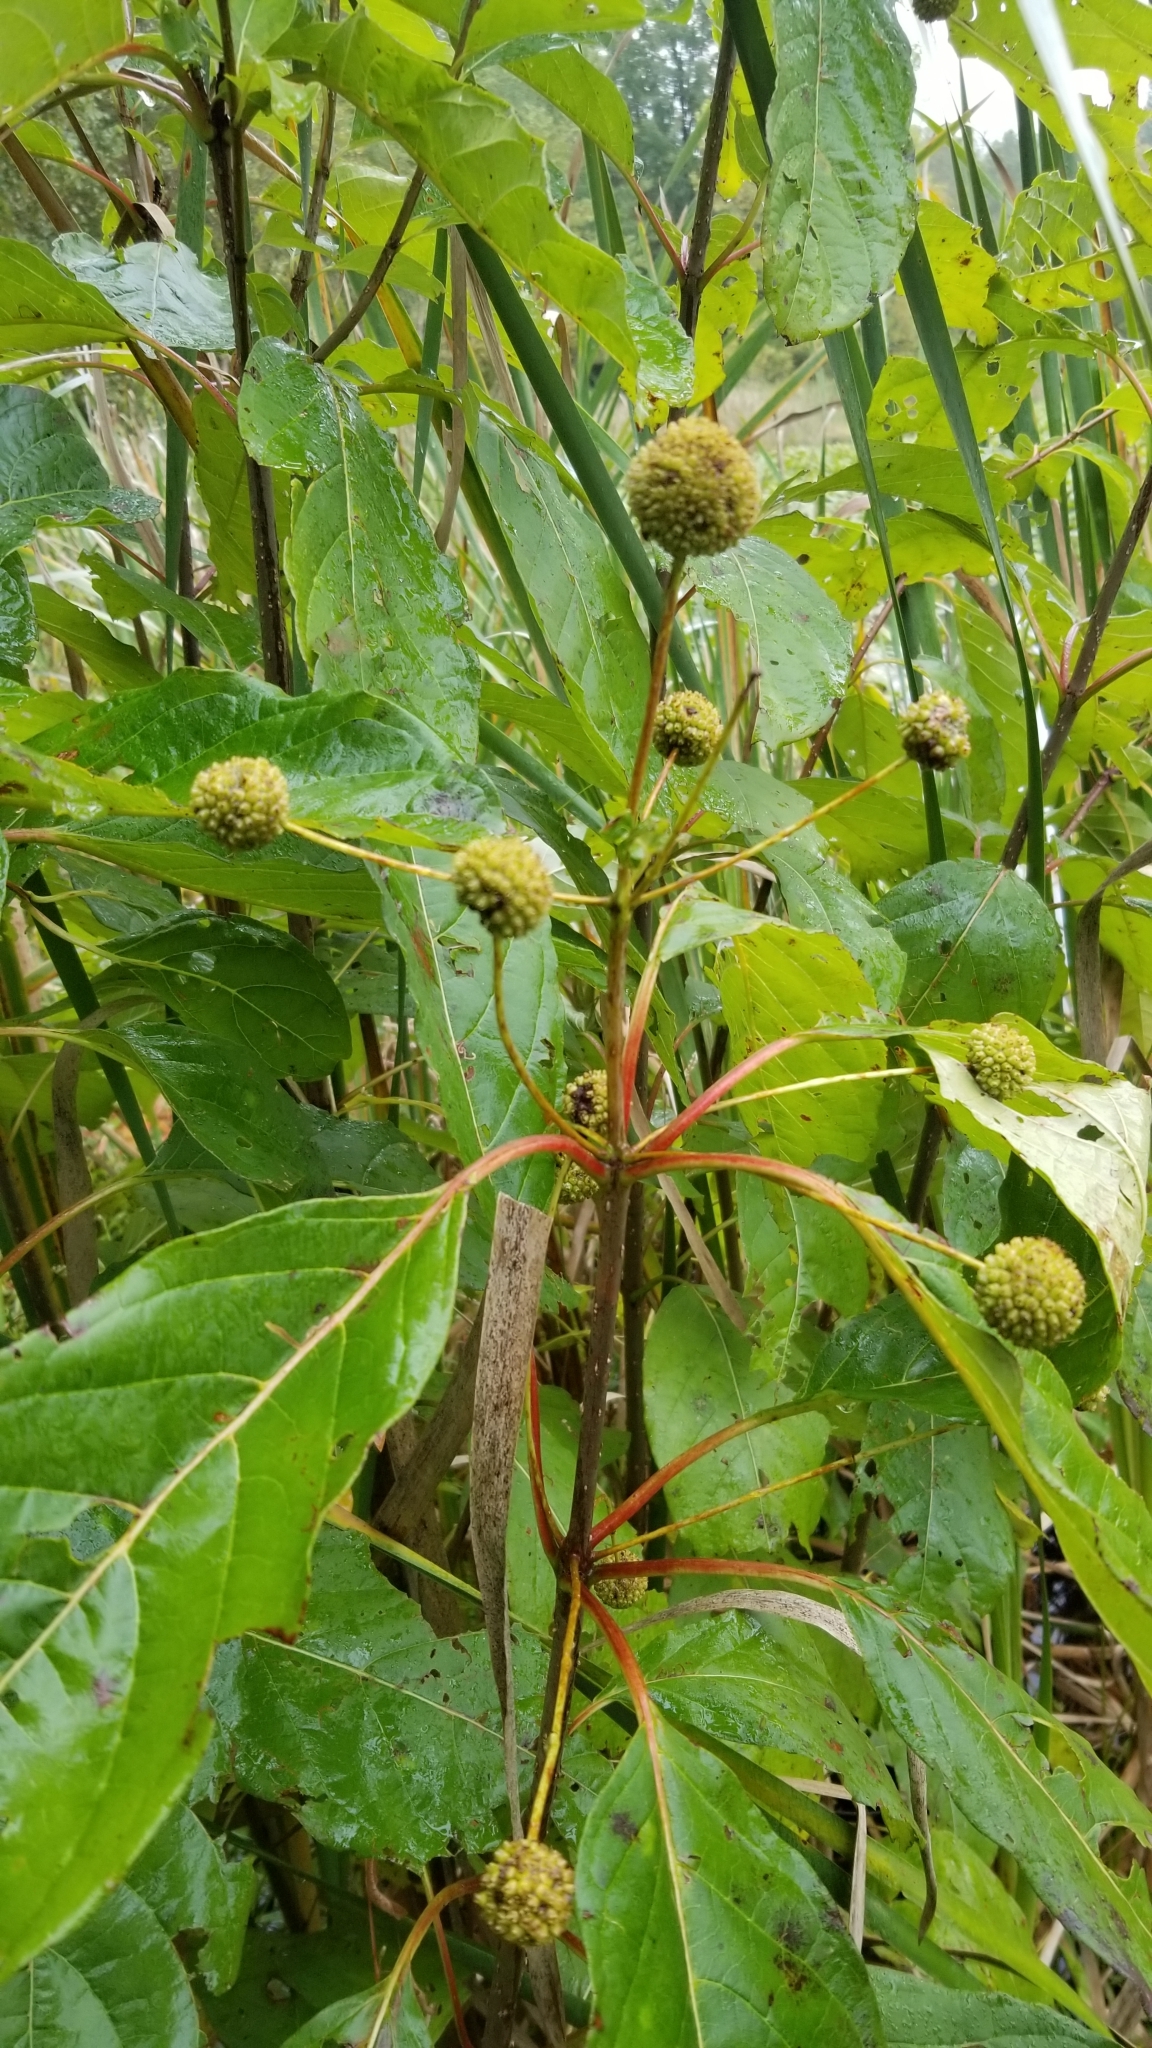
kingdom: Plantae
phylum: Tracheophyta
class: Magnoliopsida
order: Gentianales
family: Rubiaceae
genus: Cephalanthus
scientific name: Cephalanthus occidentalis
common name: Button-willow
